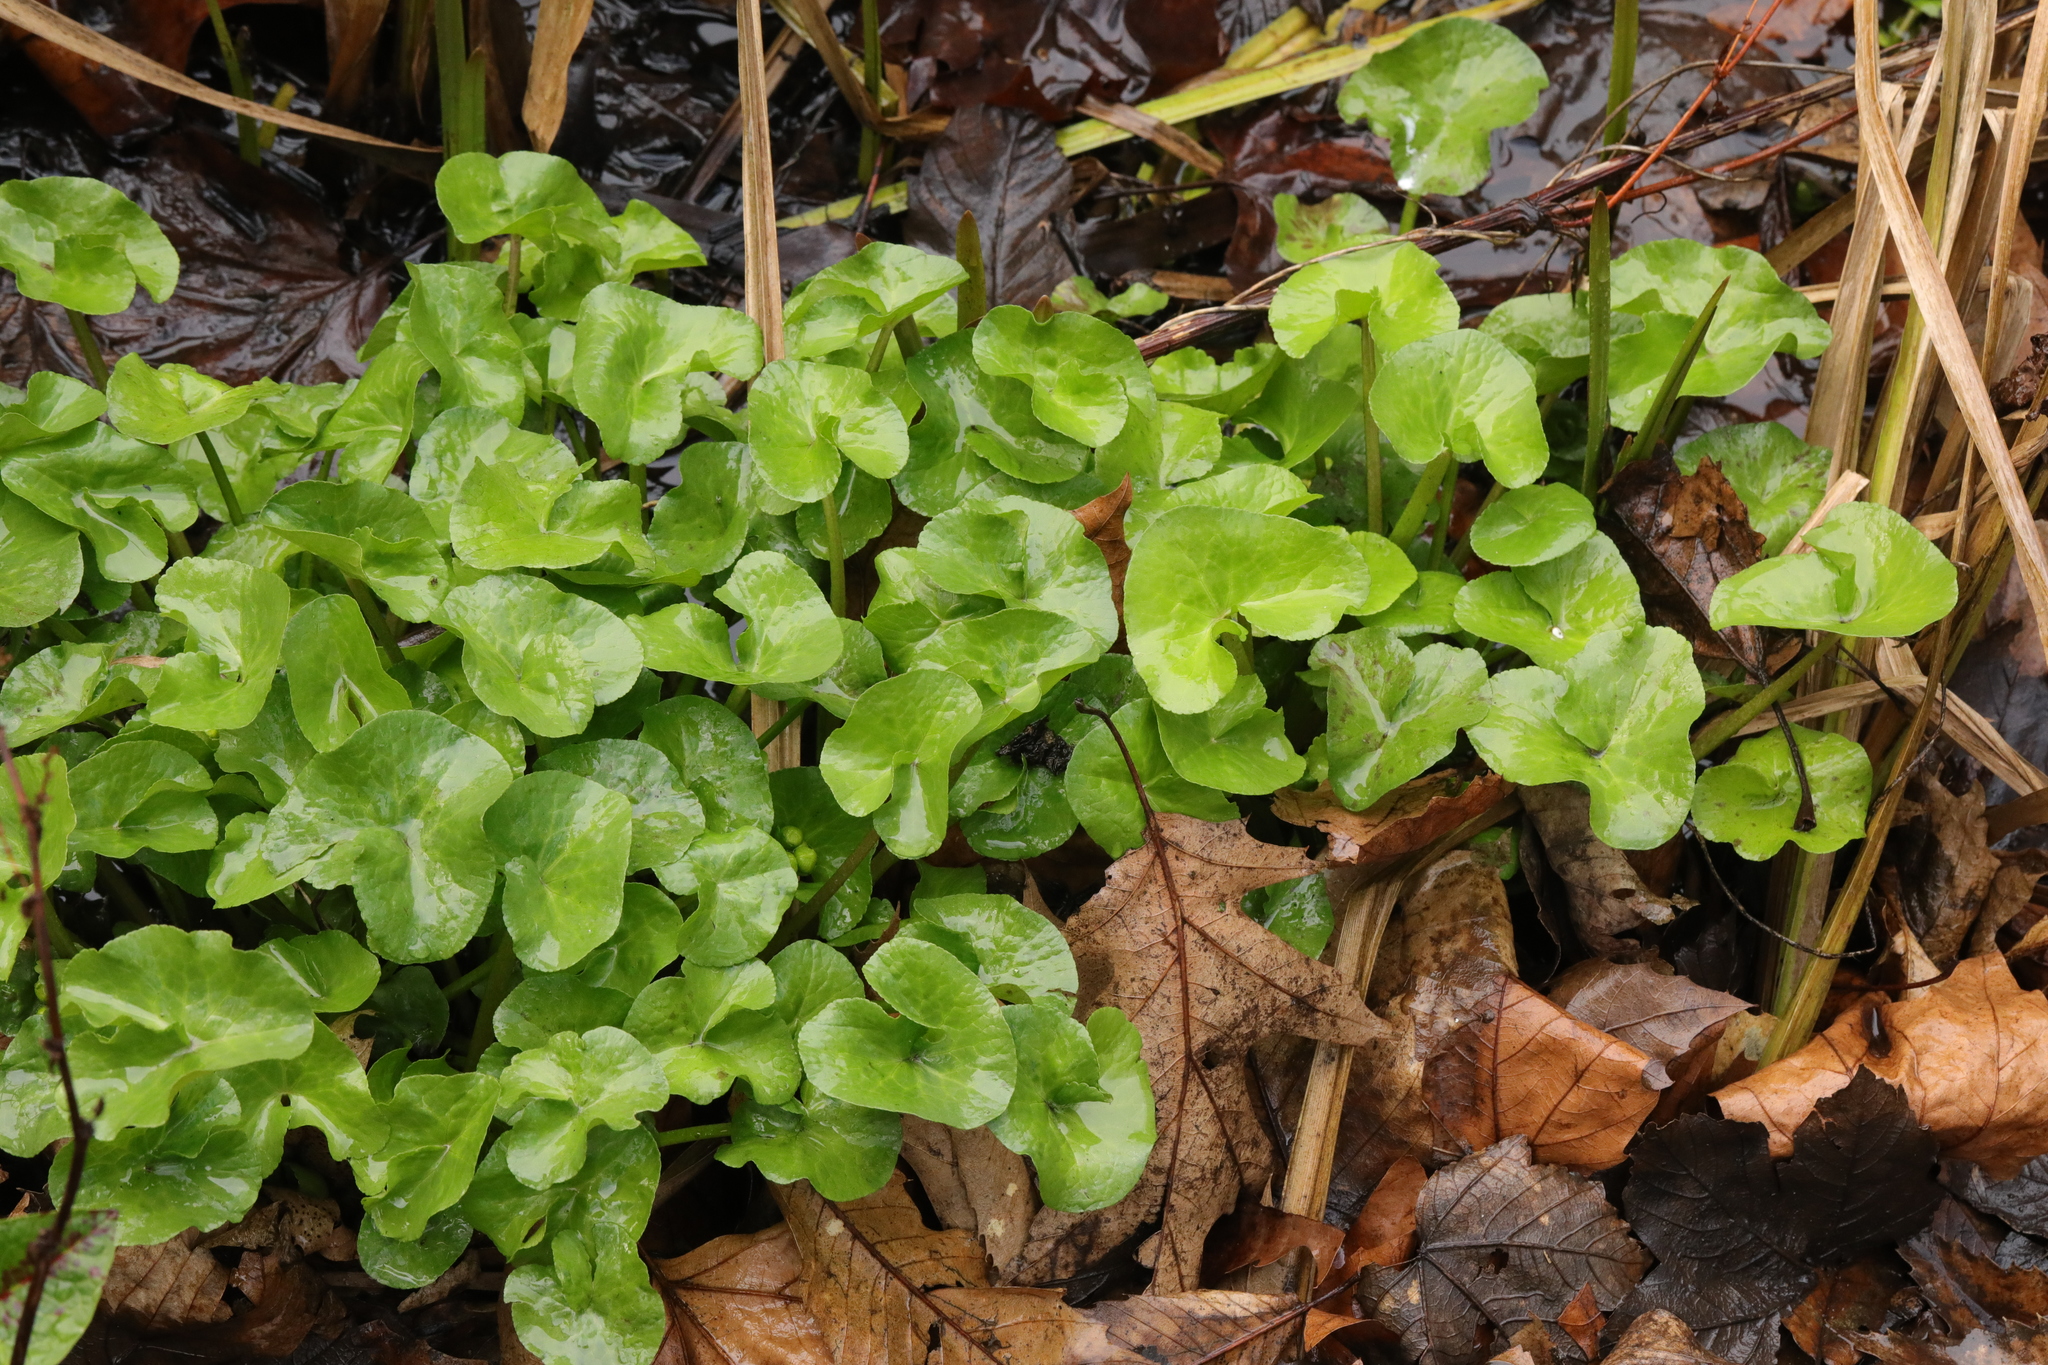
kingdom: Plantae
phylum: Tracheophyta
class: Magnoliopsida
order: Ranunculales
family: Ranunculaceae
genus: Caltha
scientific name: Caltha palustris
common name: Marsh marigold
